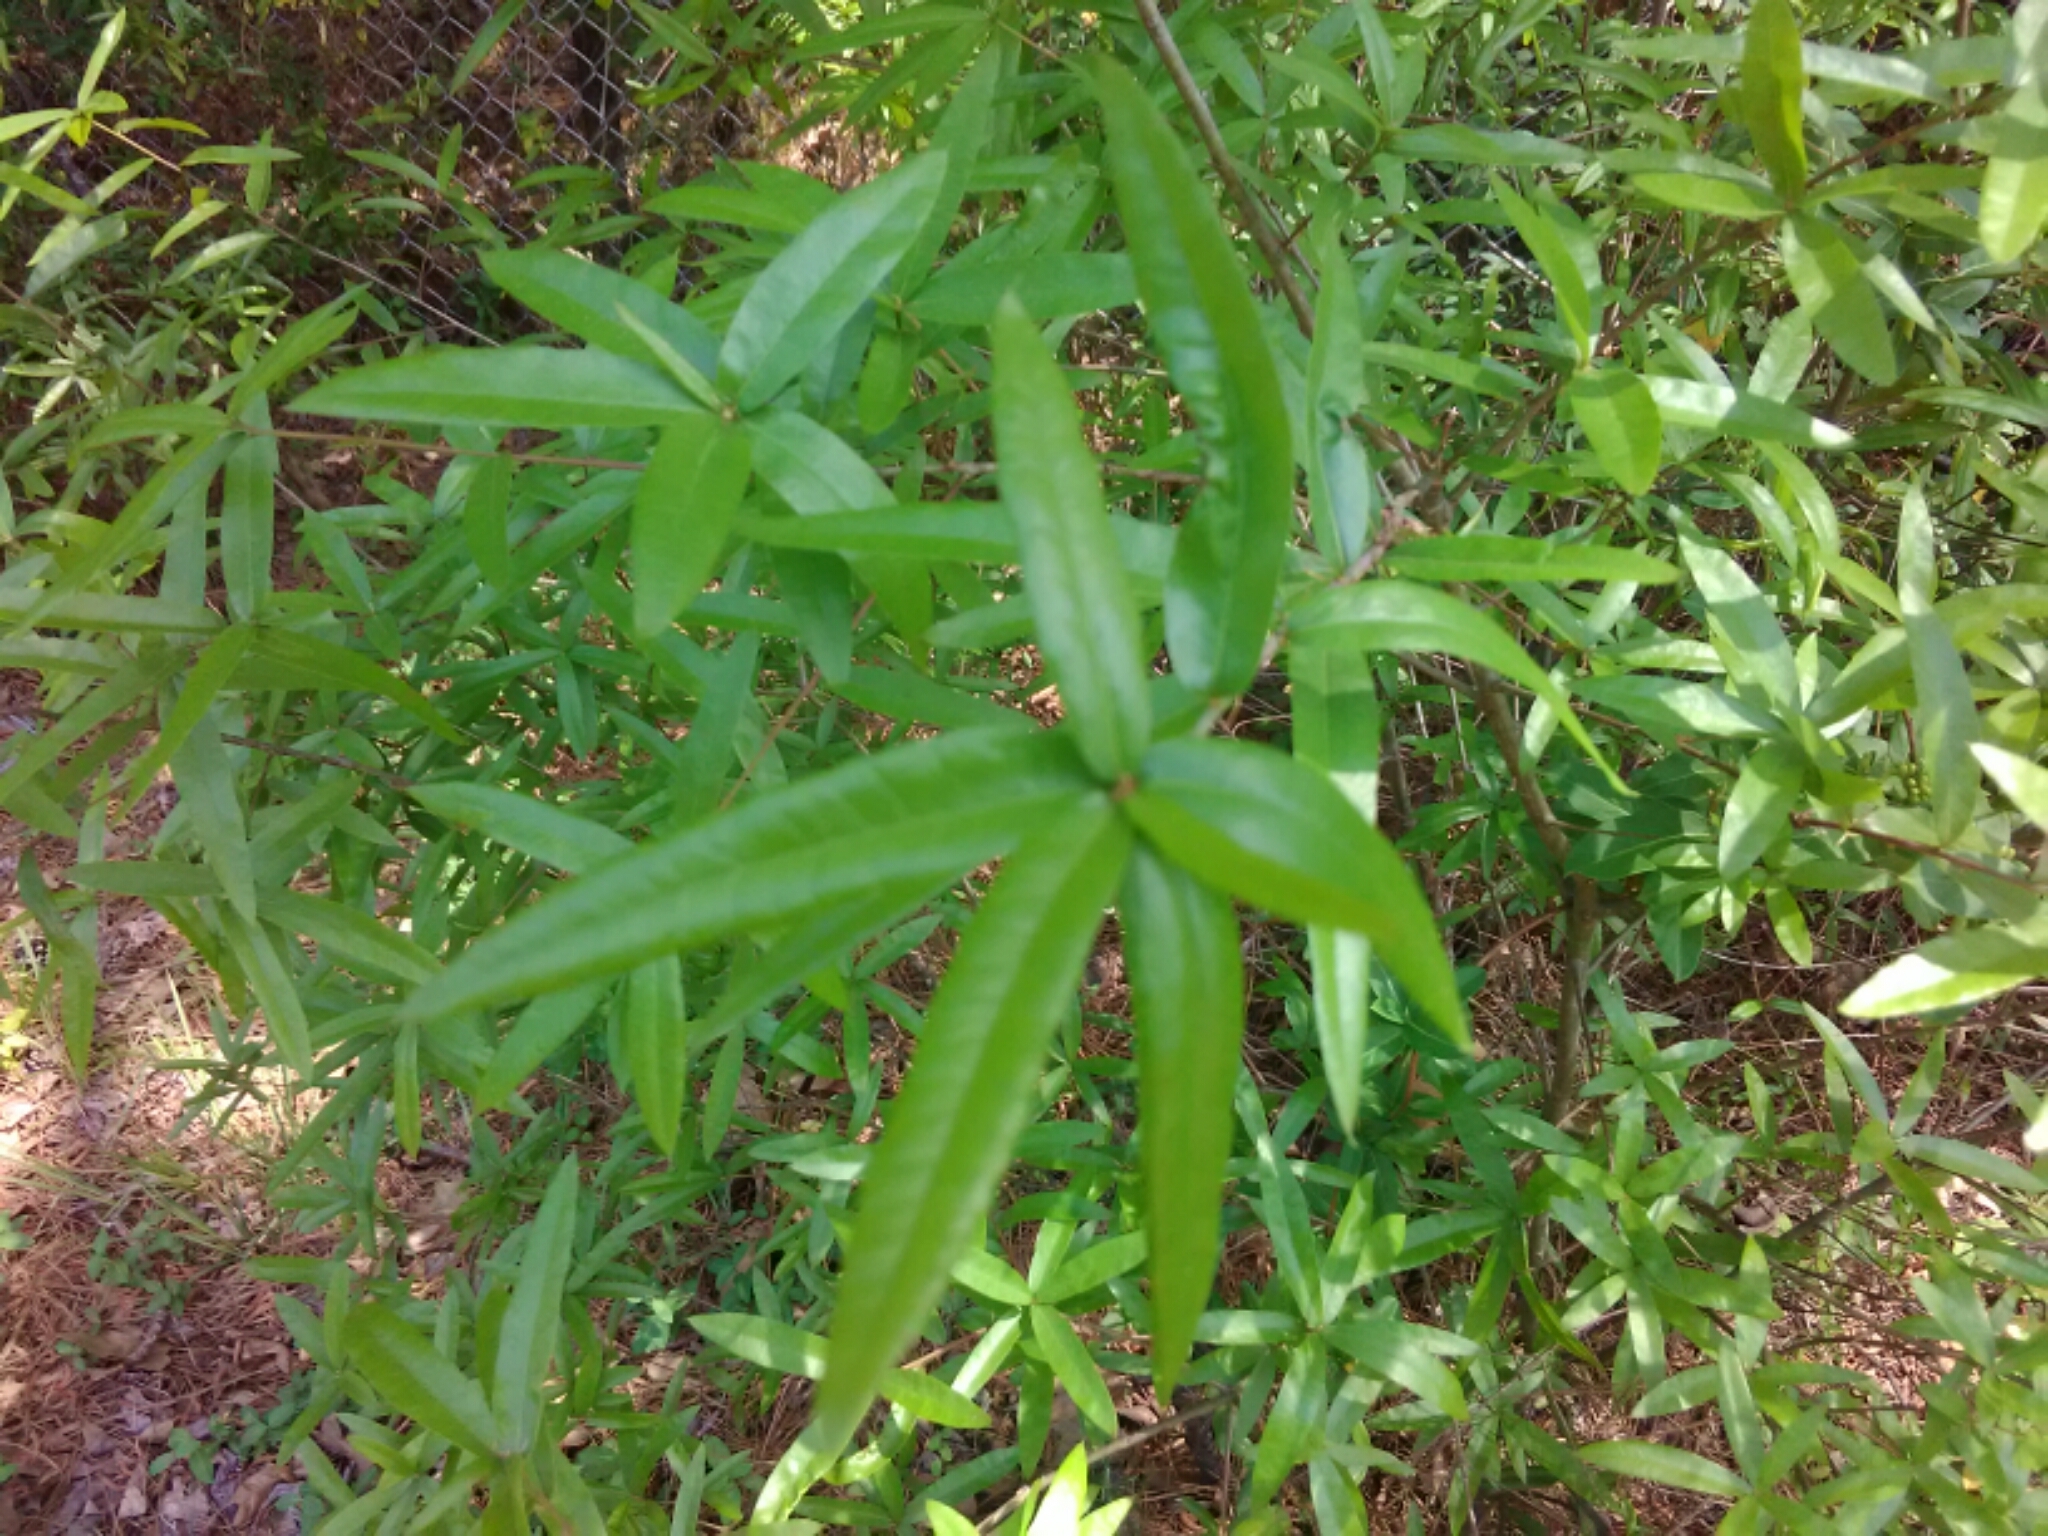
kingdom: Plantae
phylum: Tracheophyta
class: Magnoliopsida
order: Fagales
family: Fagaceae
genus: Quercus
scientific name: Quercus phellos
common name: Willow oak
